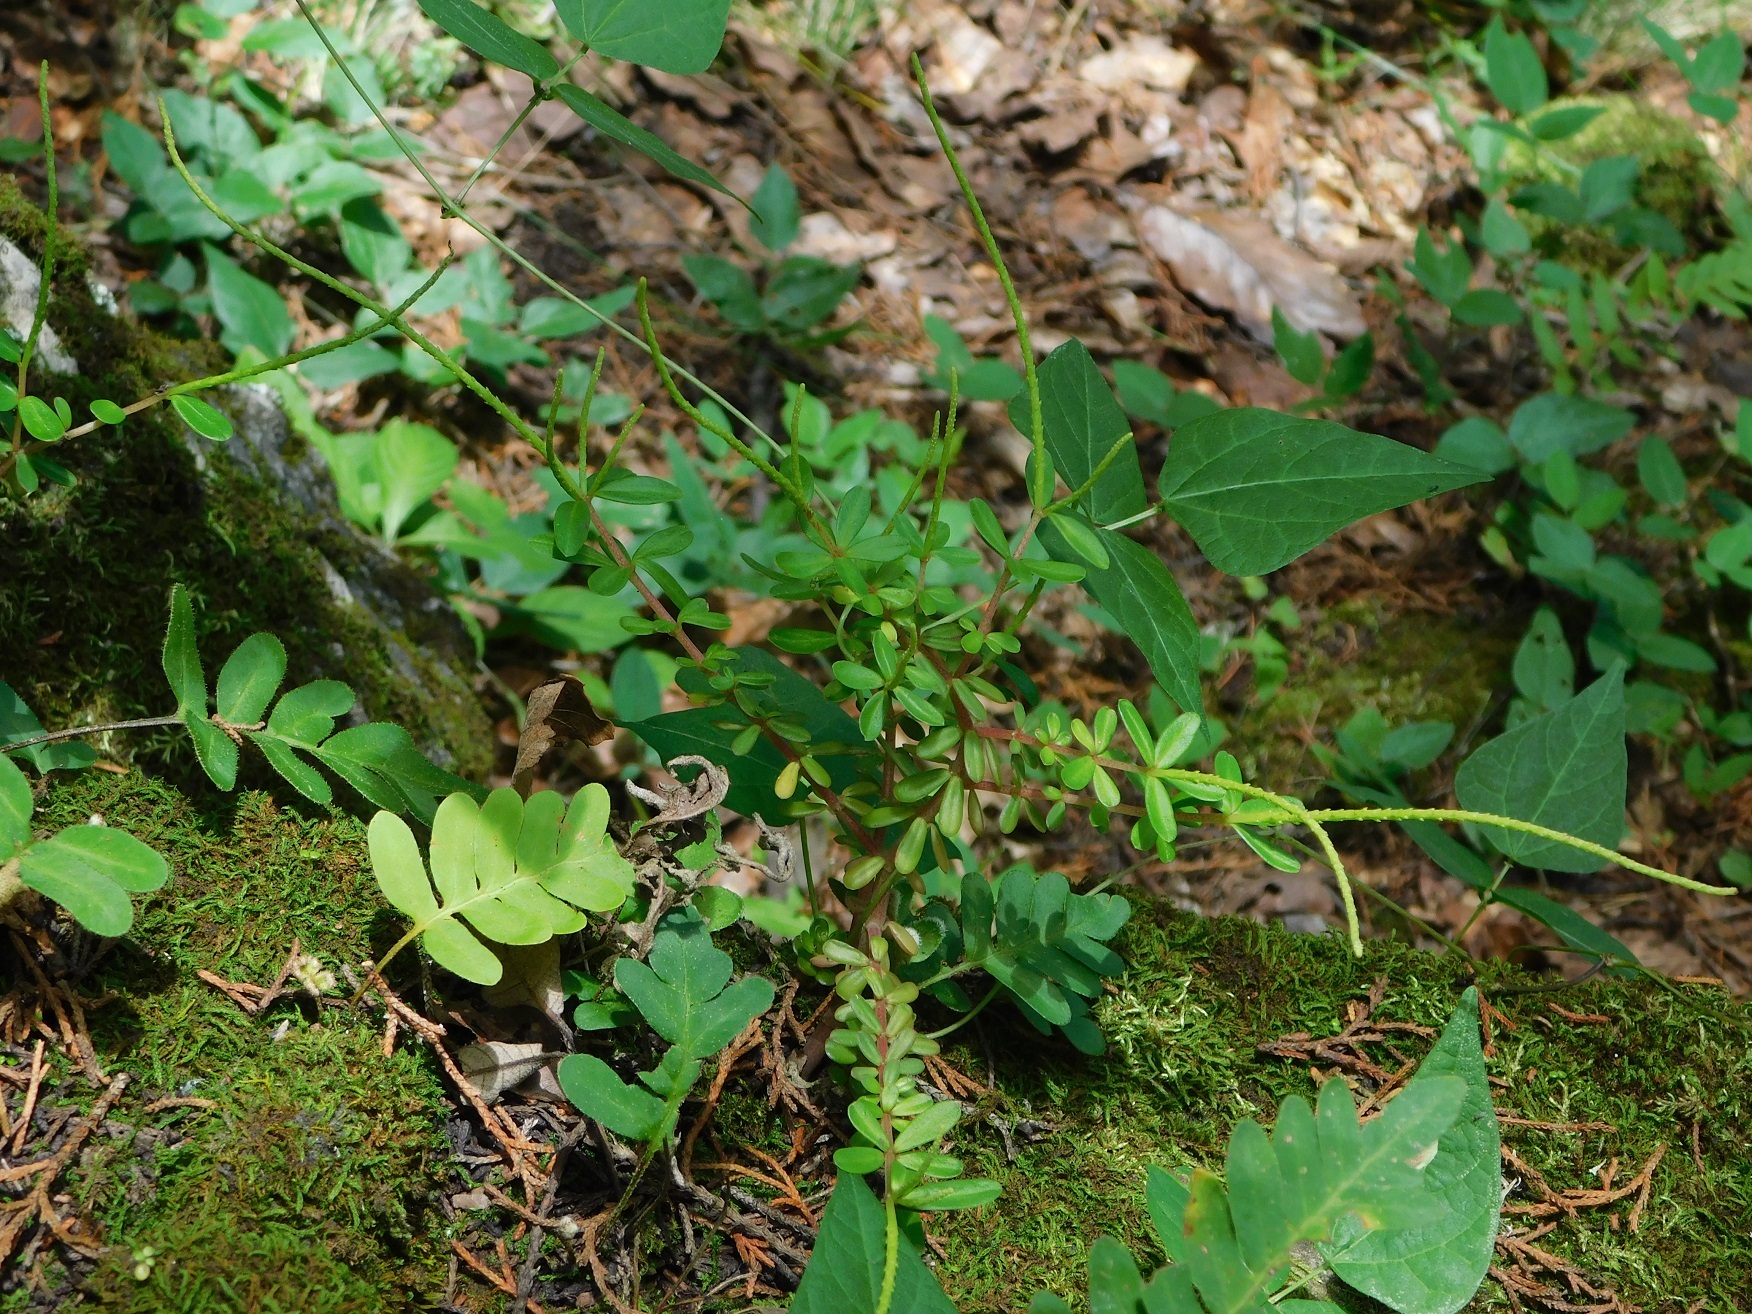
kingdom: Plantae
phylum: Tracheophyta
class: Magnoliopsida
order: Piperales
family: Piperaceae
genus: Peperomia
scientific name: Peperomia galioides
